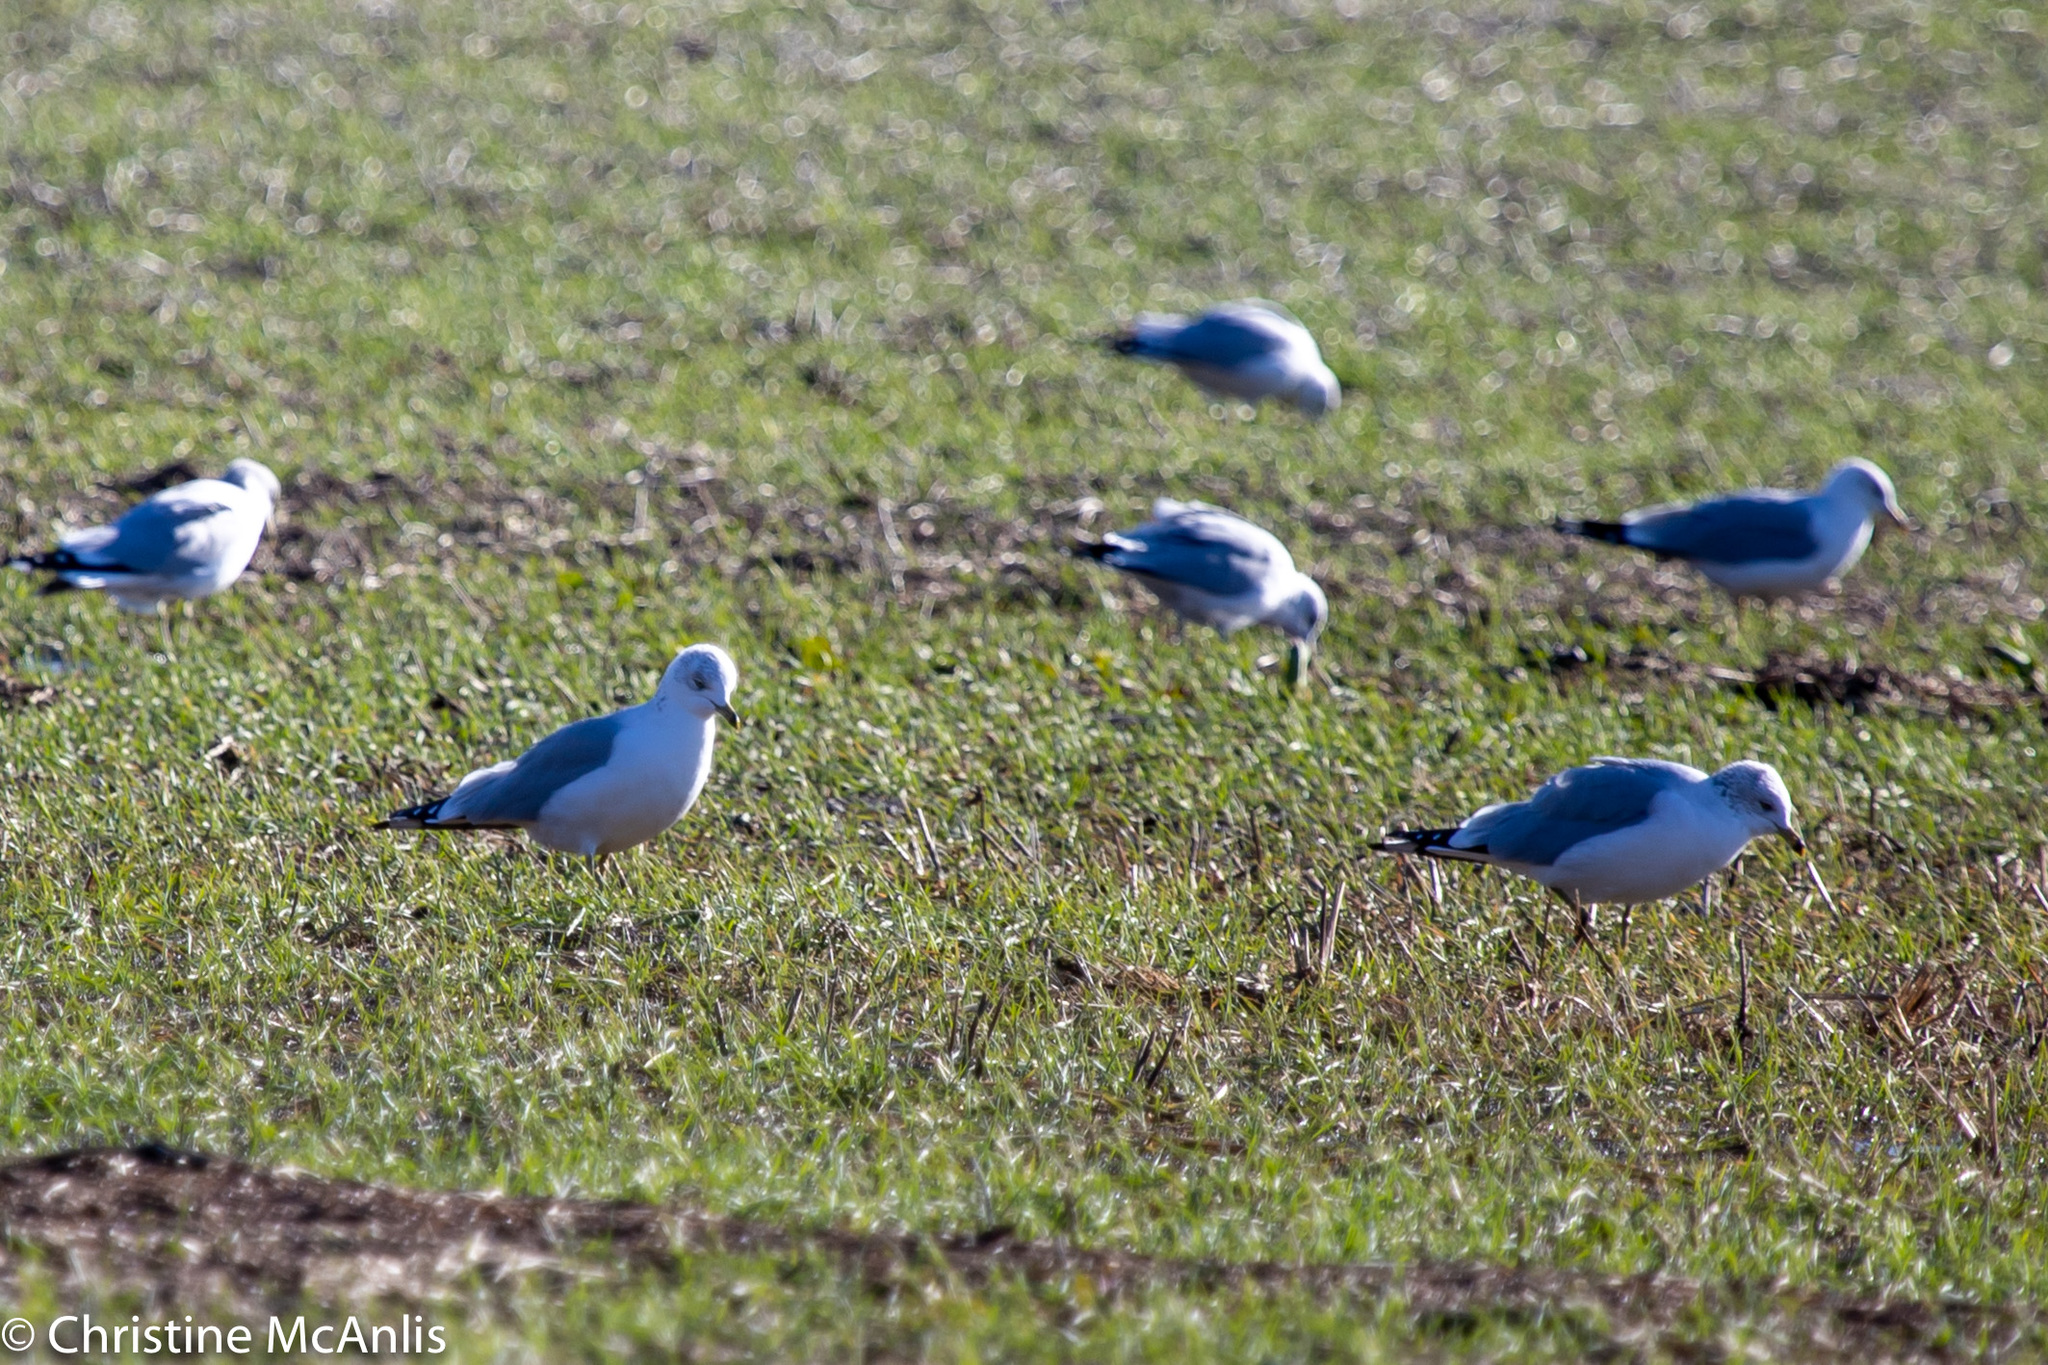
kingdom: Animalia
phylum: Chordata
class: Aves
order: Charadriiformes
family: Laridae
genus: Larus
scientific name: Larus delawarensis
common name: Ring-billed gull
